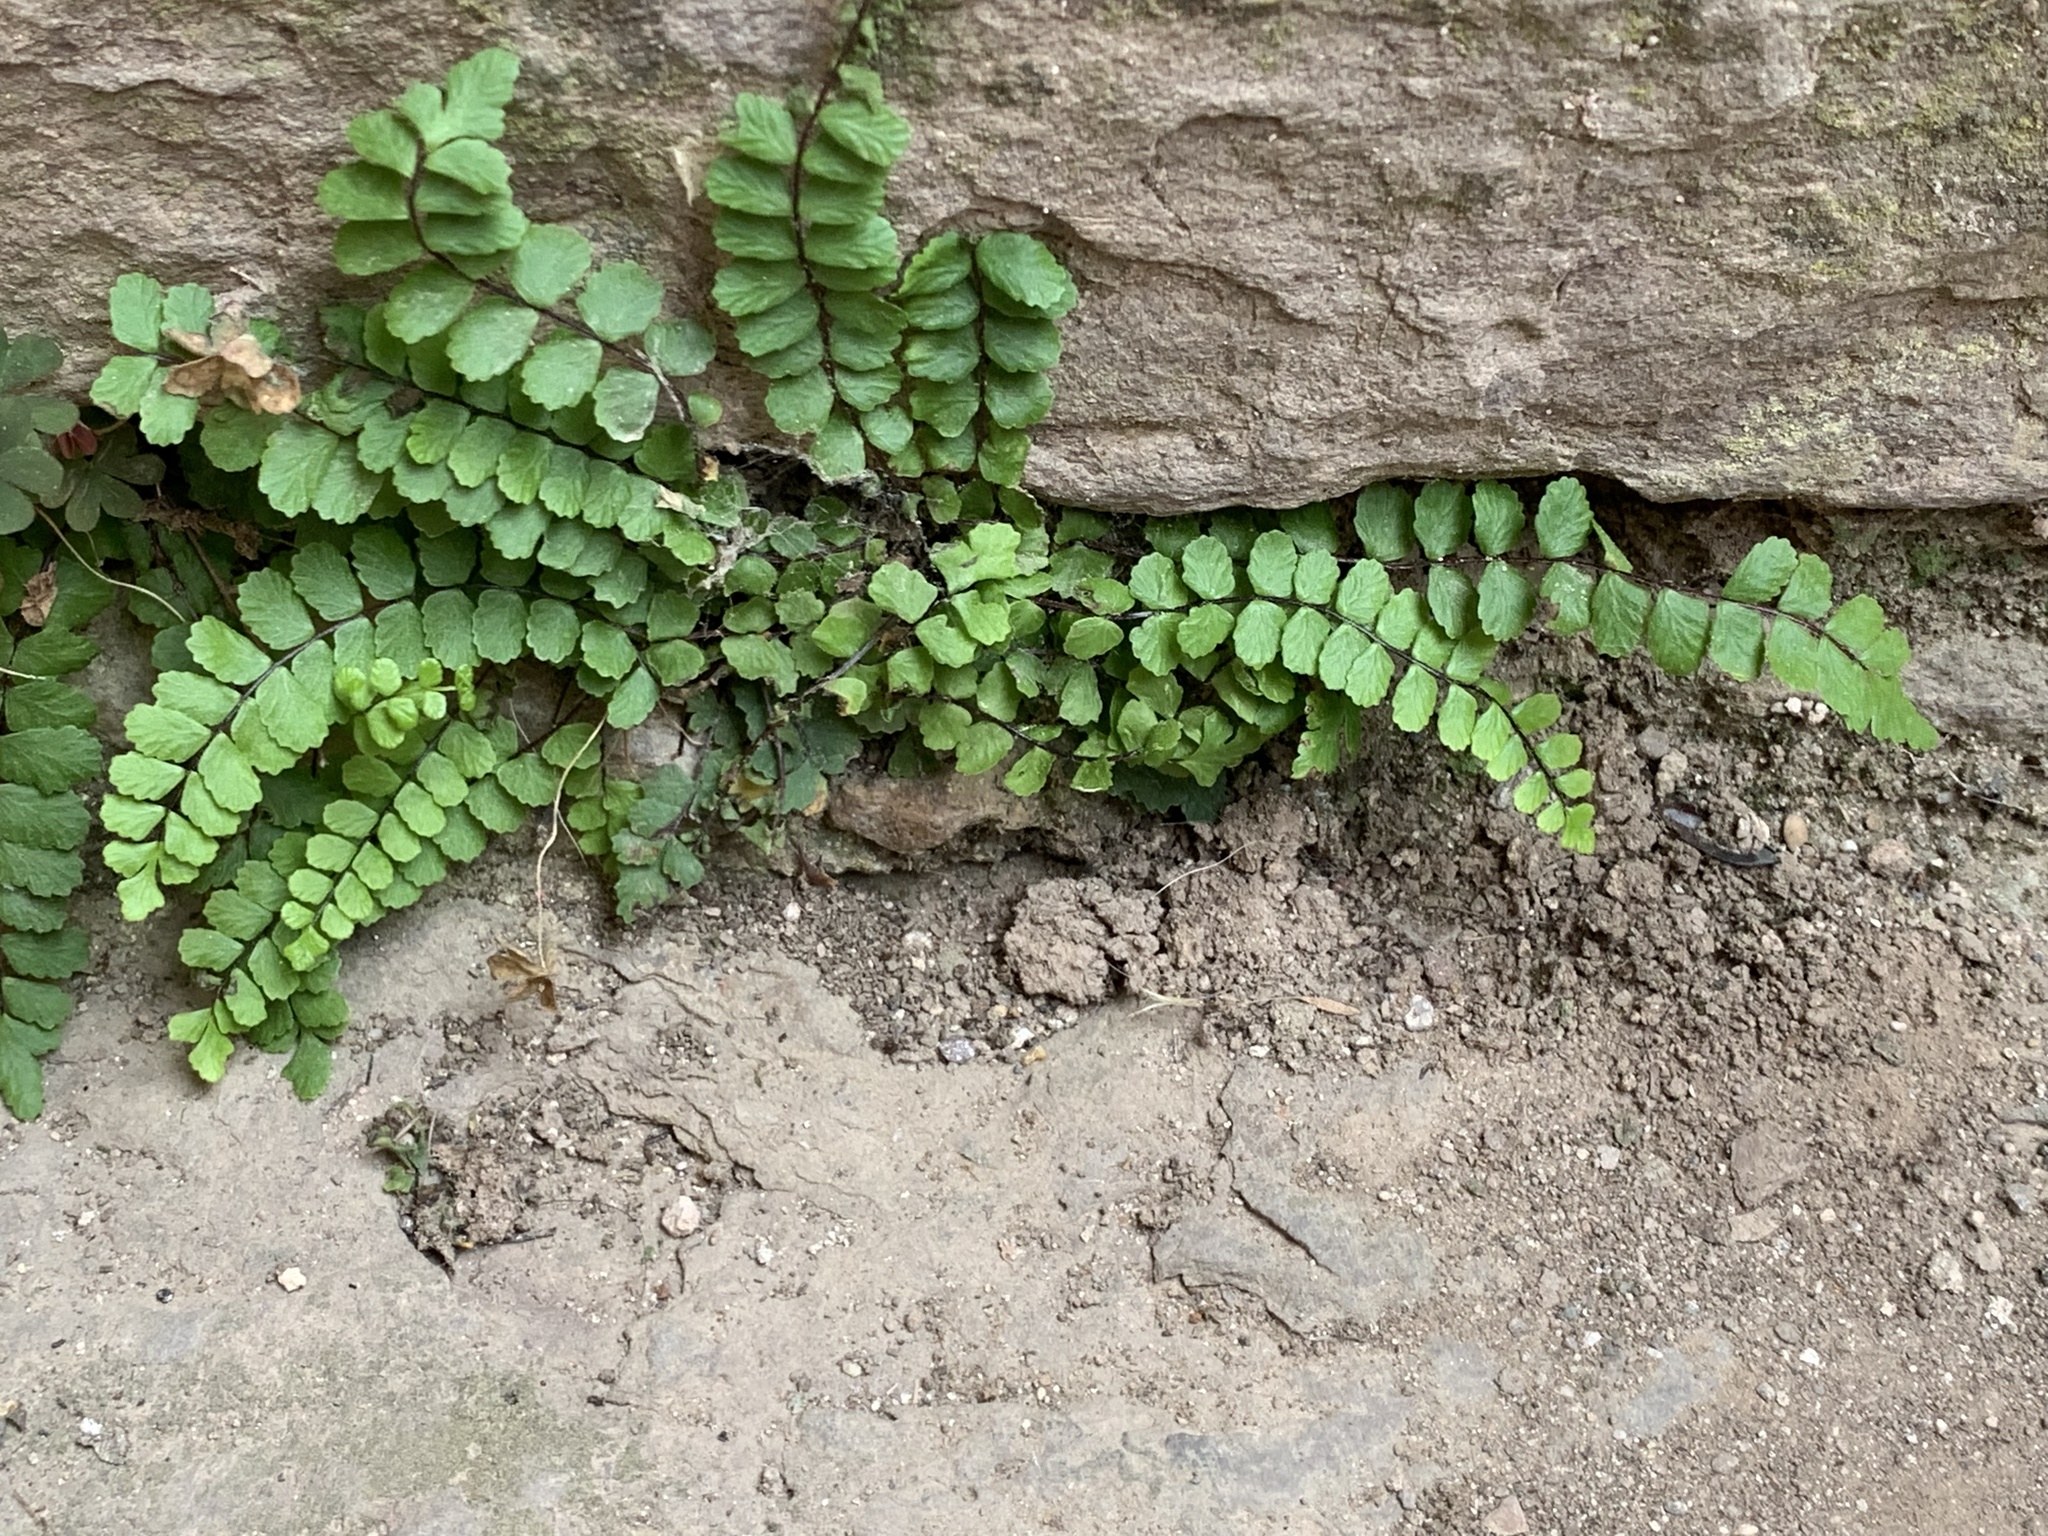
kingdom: Plantae
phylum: Tracheophyta
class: Polypodiopsida
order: Polypodiales
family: Aspleniaceae
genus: Asplenium
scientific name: Asplenium trichomanes
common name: Maidenhair spleenwort
